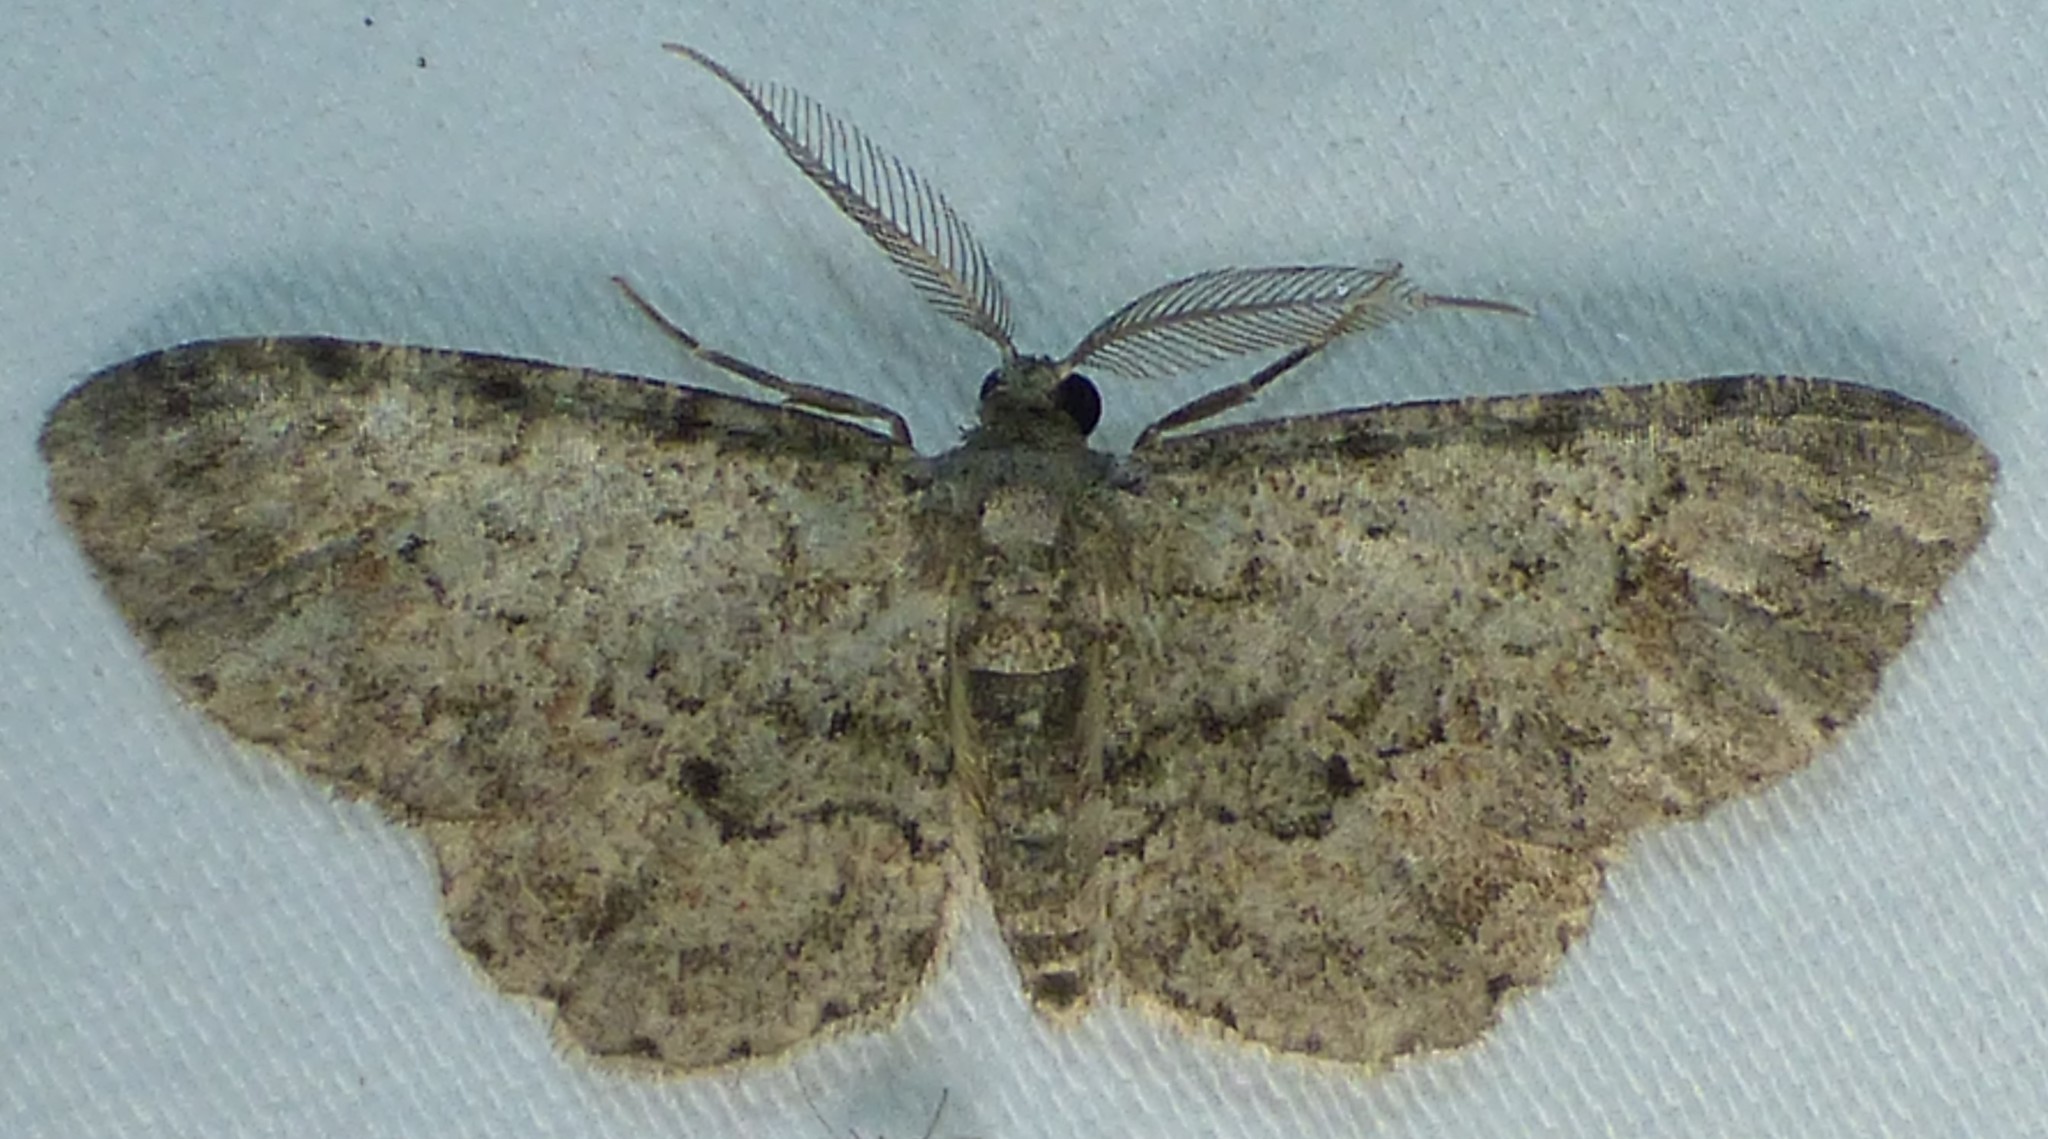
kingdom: Animalia
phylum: Arthropoda
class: Insecta
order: Lepidoptera
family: Geometridae
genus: Glenoides
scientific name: Glenoides texanaria
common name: Texas gray
